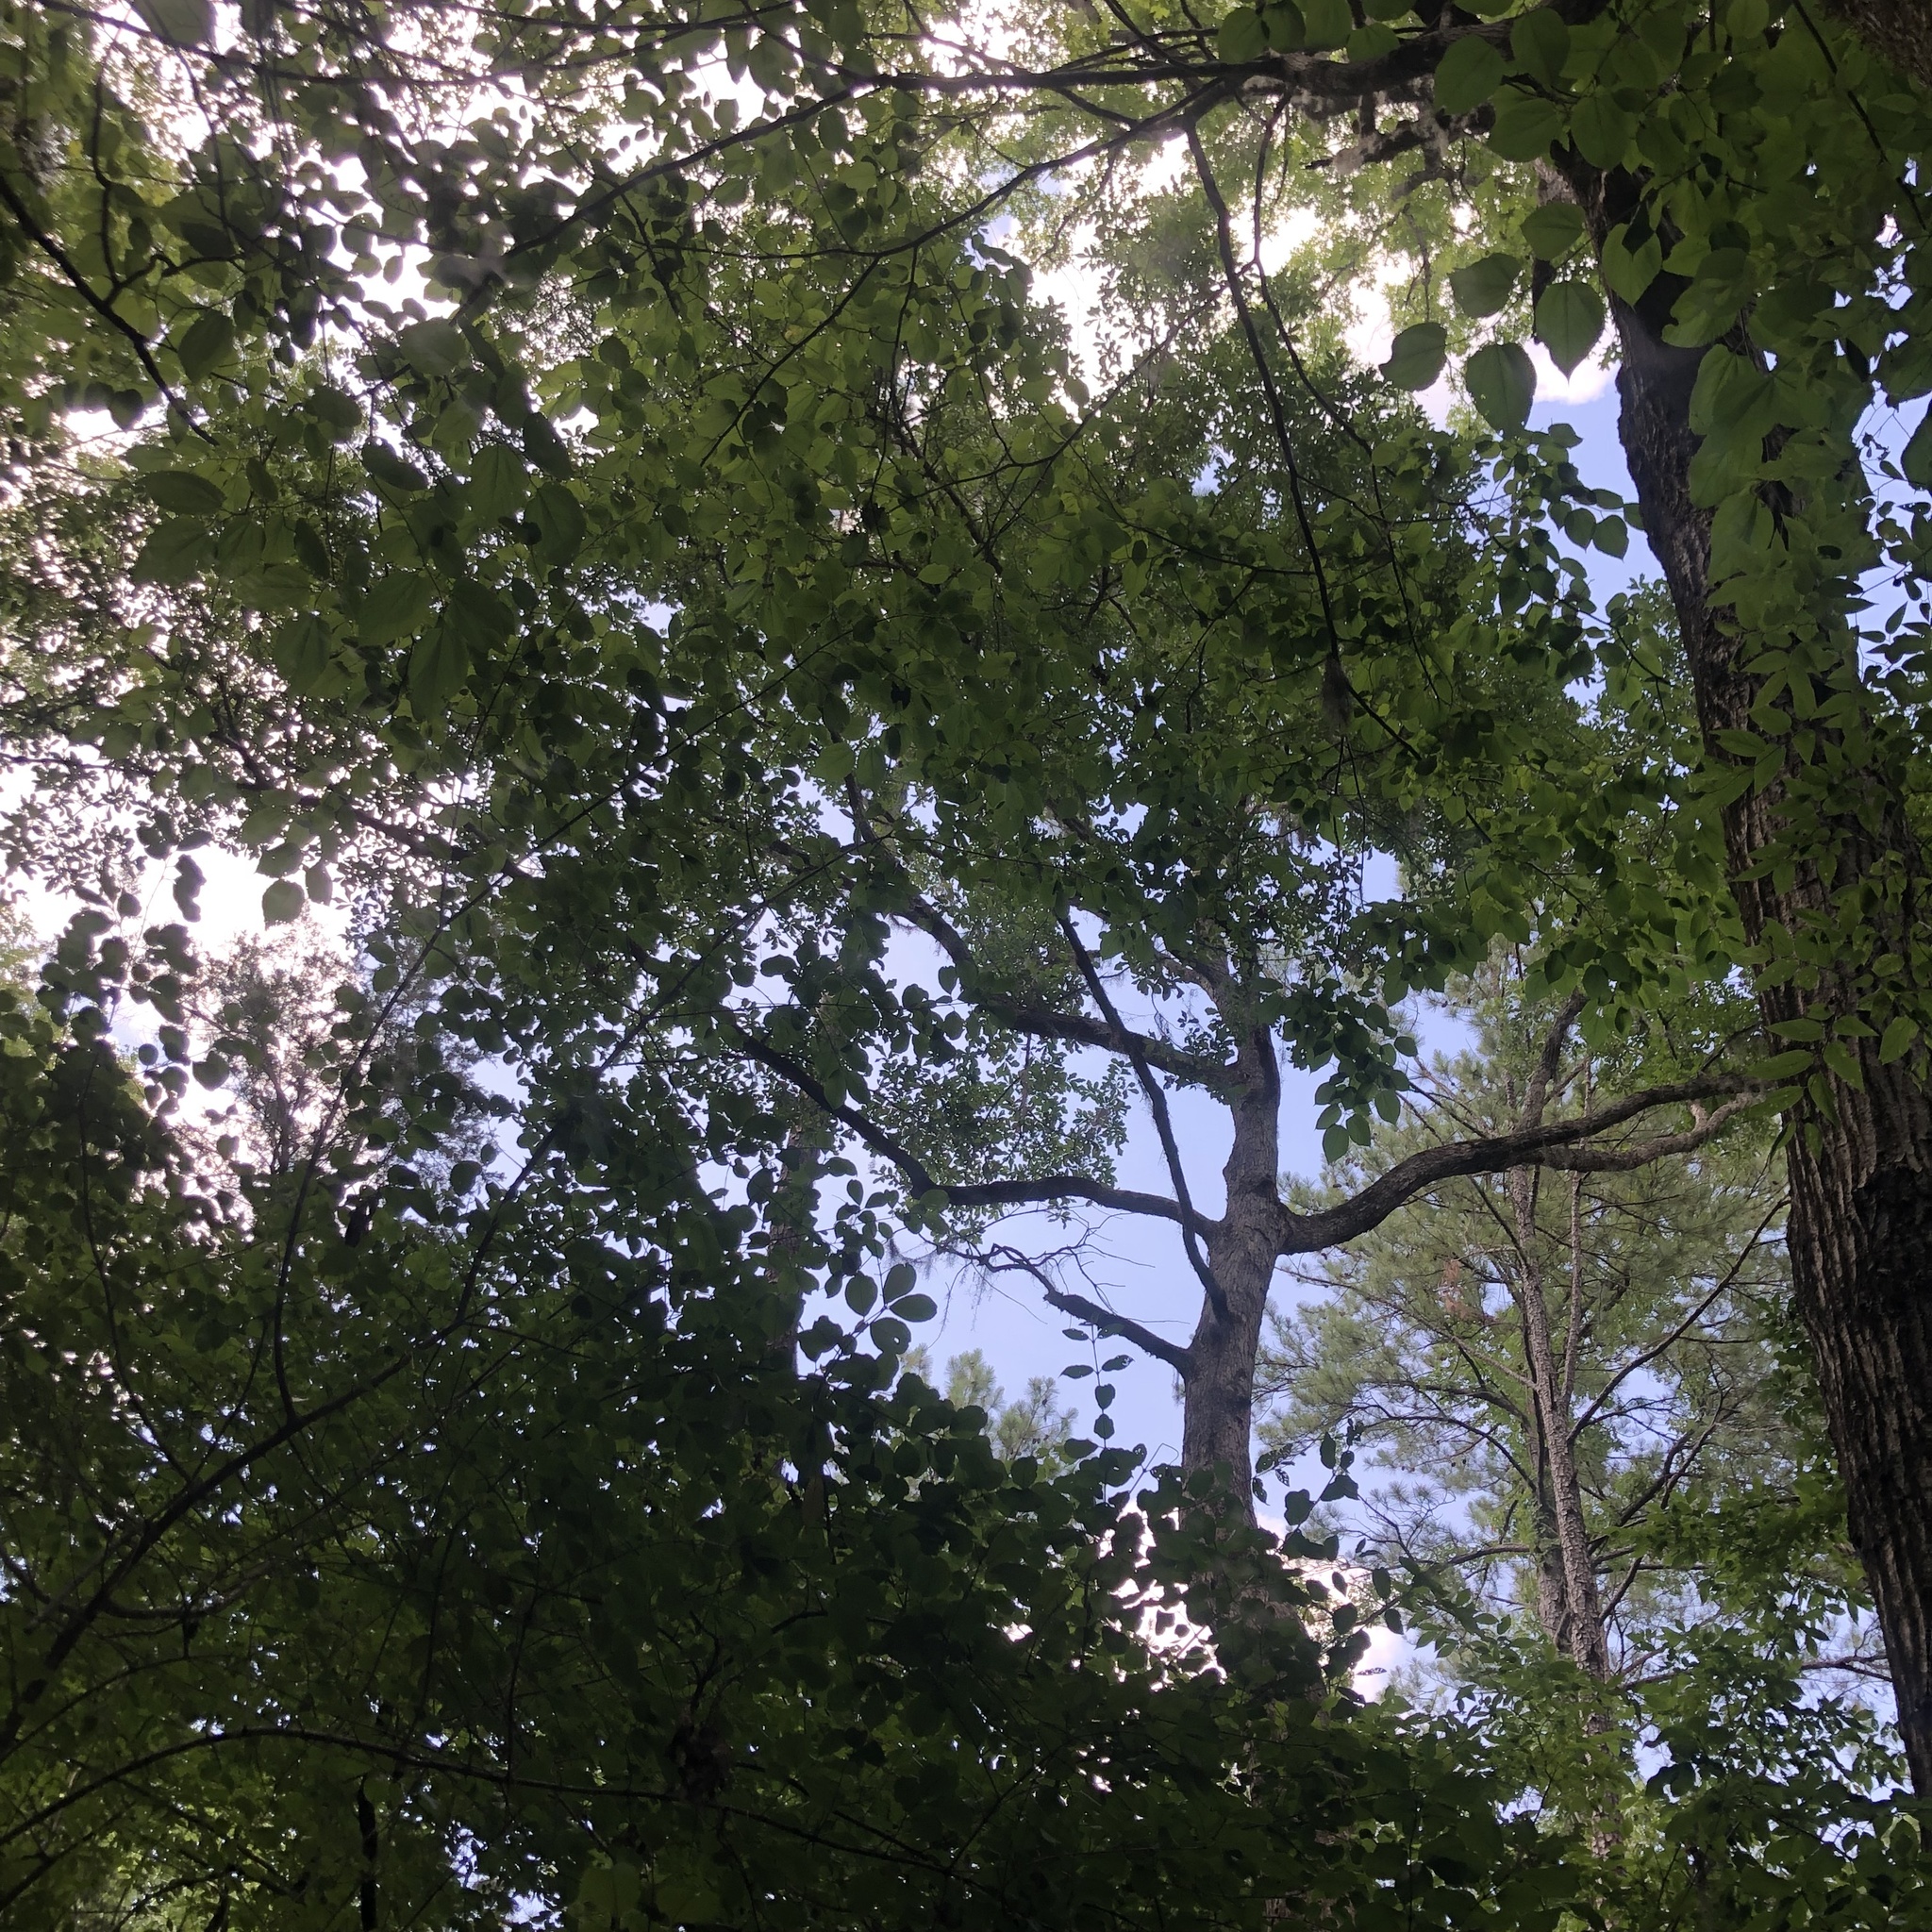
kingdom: Plantae
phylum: Tracheophyta
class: Magnoliopsida
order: Fagales
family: Fagaceae
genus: Quercus
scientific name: Quercus sinuata
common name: Durand oak
